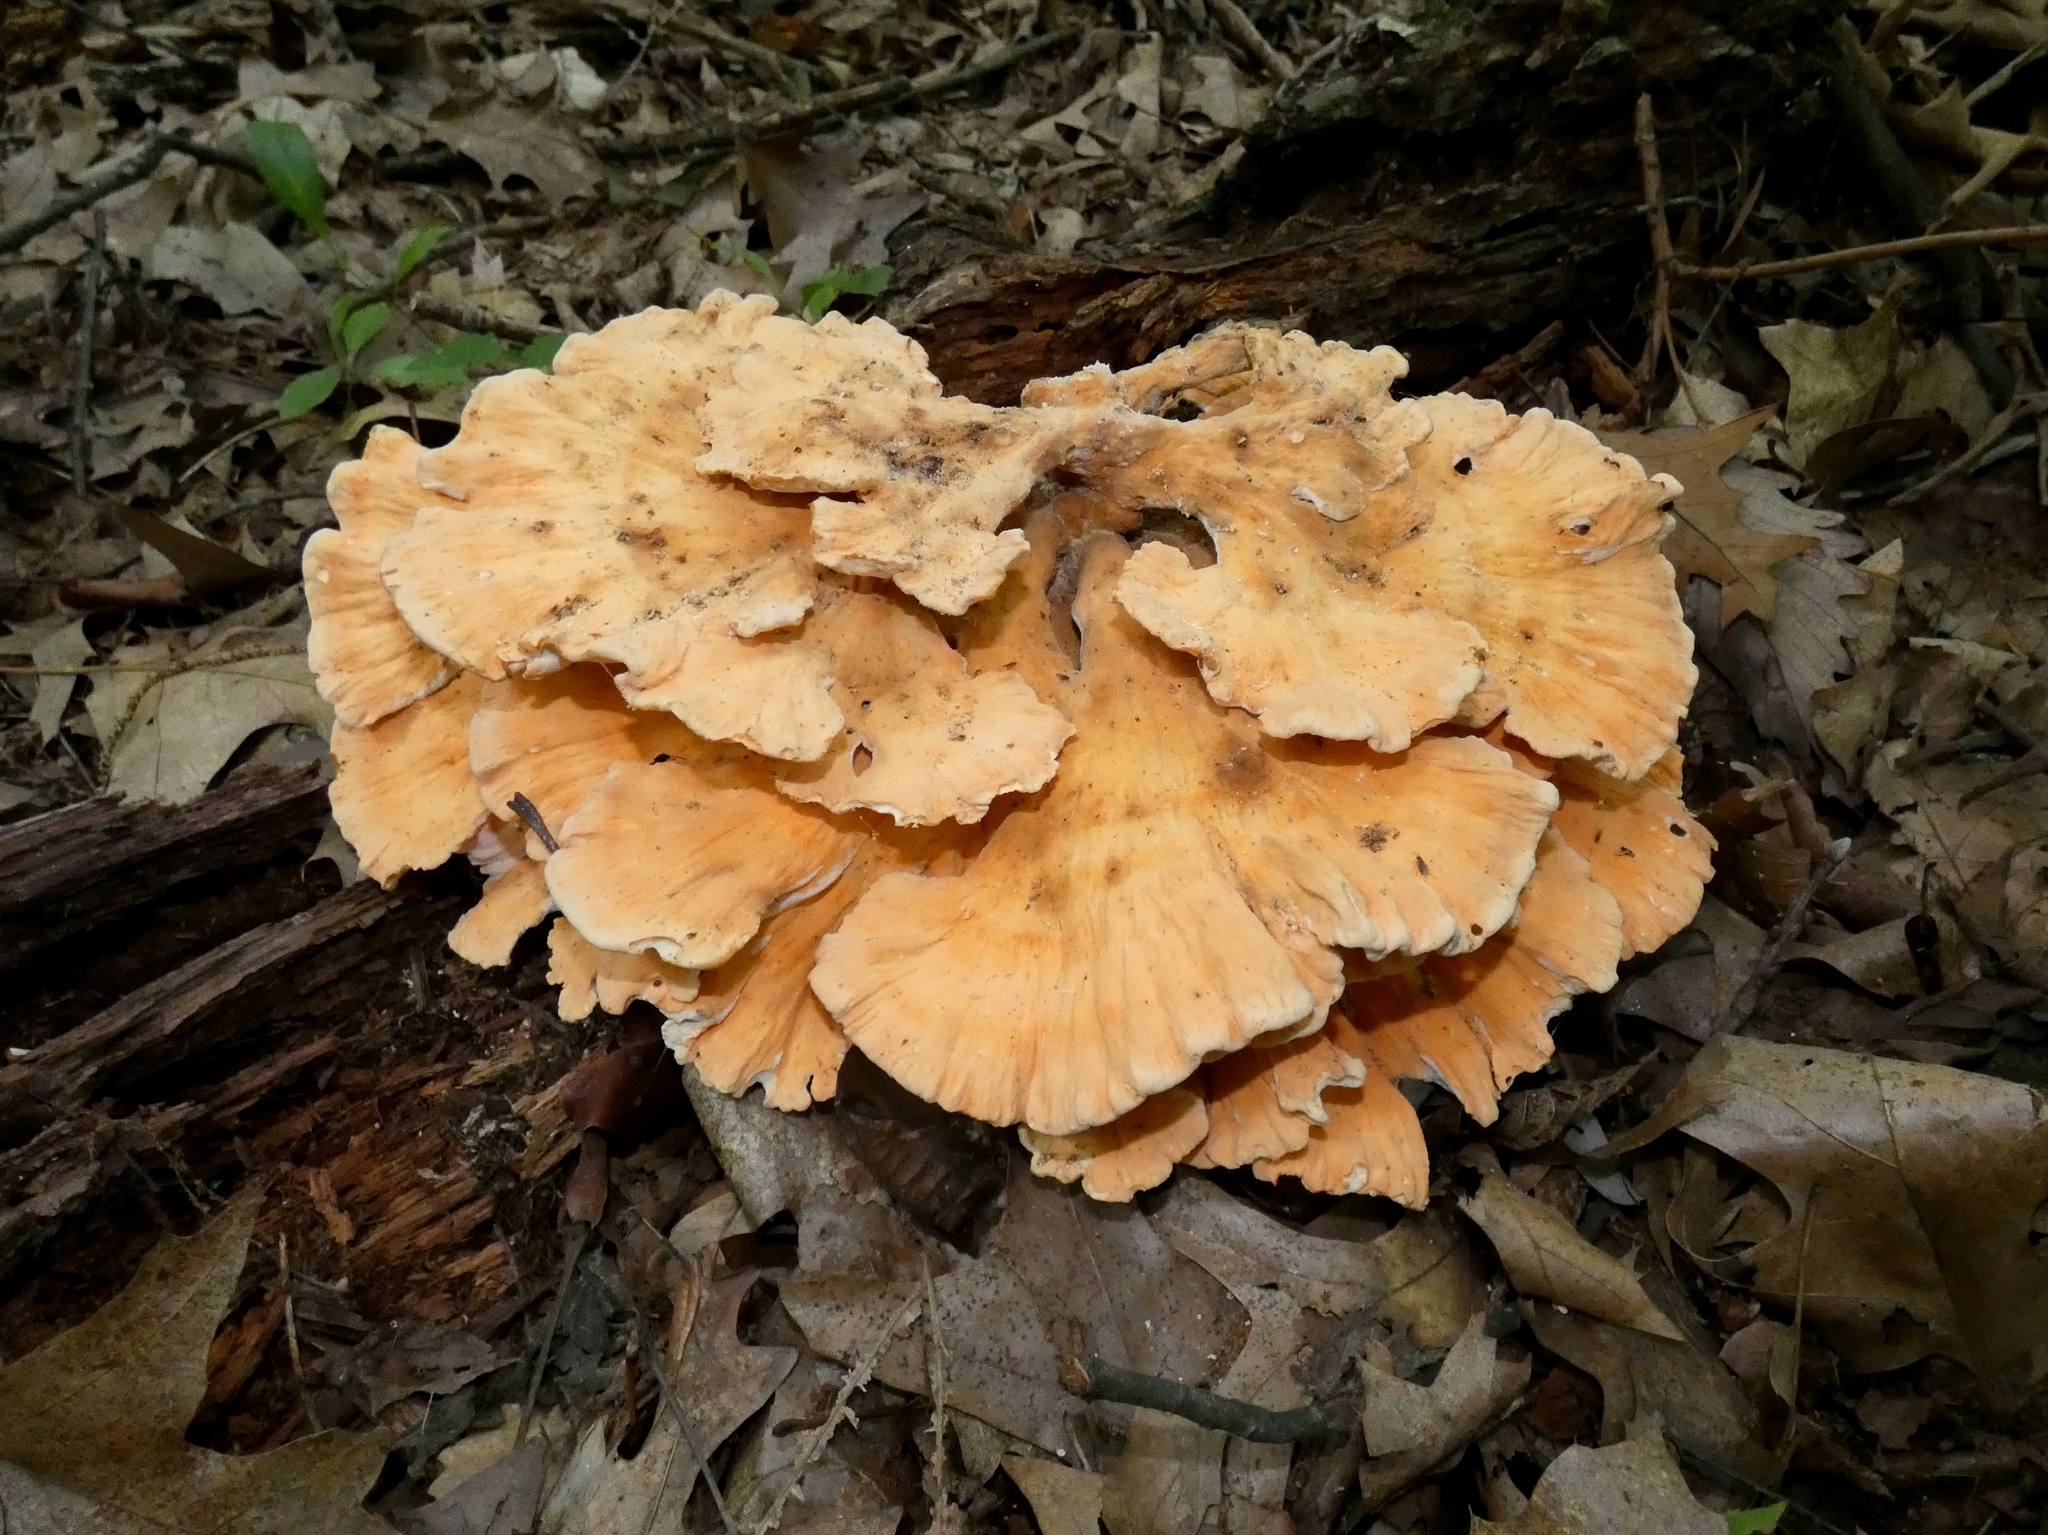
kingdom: Fungi
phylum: Basidiomycota
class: Agaricomycetes
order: Polyporales
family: Laetiporaceae
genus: Laetiporus
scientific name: Laetiporus sulphureus
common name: Chicken of the woods
